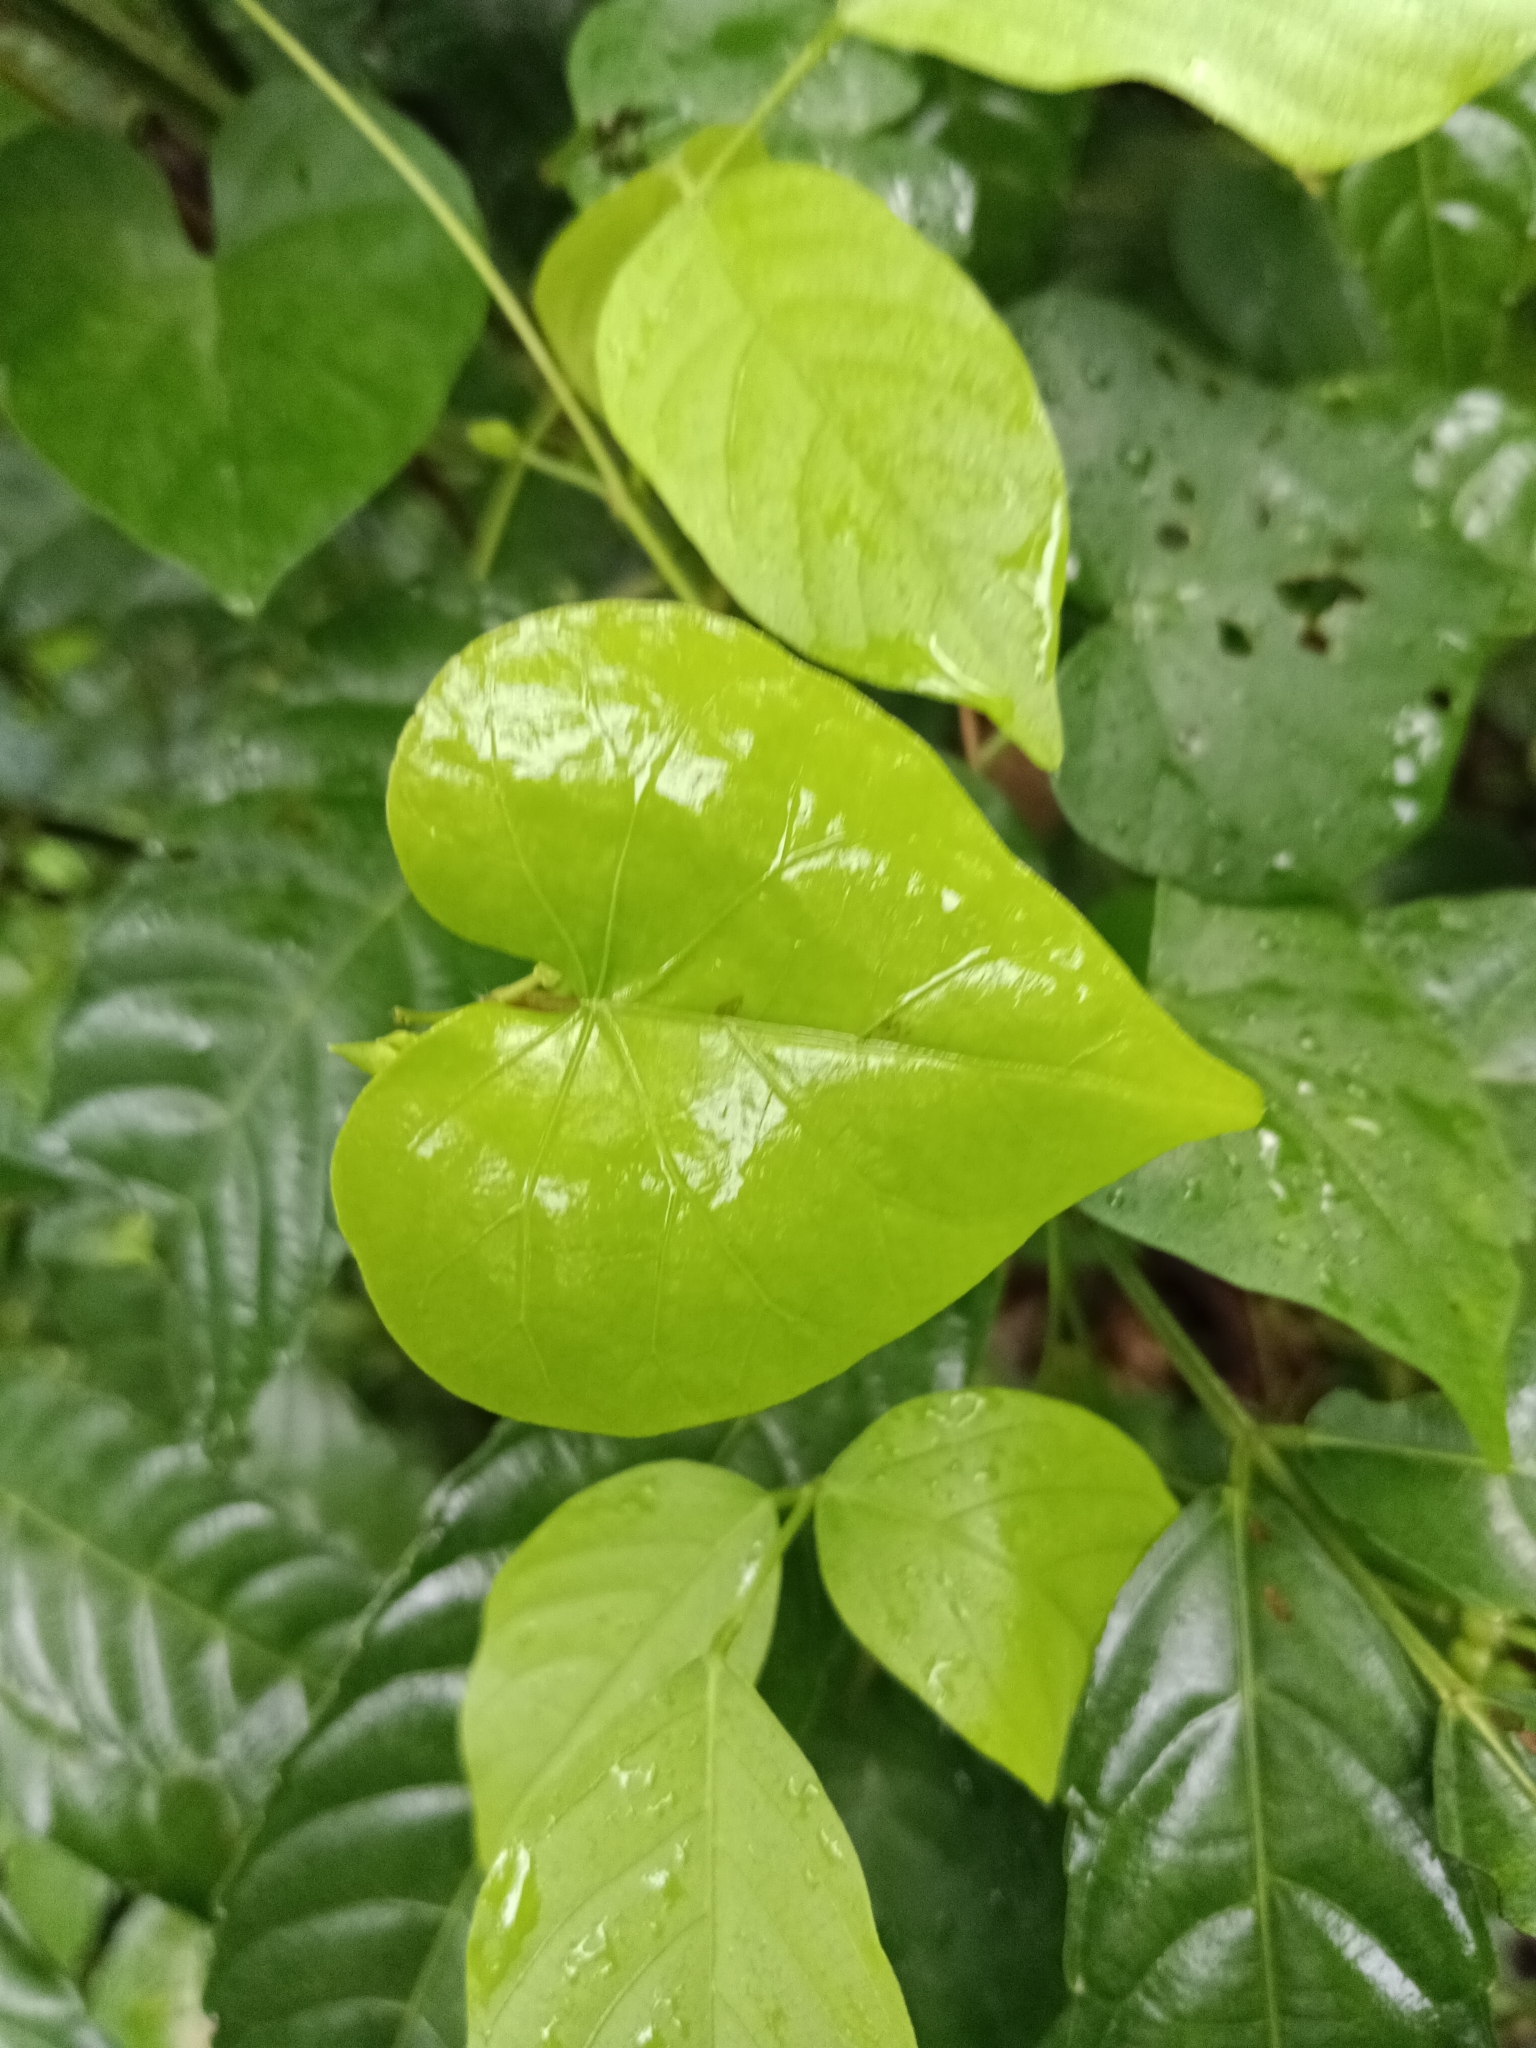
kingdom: Plantae
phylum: Tracheophyta
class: Magnoliopsida
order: Solanales
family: Convolvulaceae
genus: Ipomoea
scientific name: Ipomoea sagittifolia
